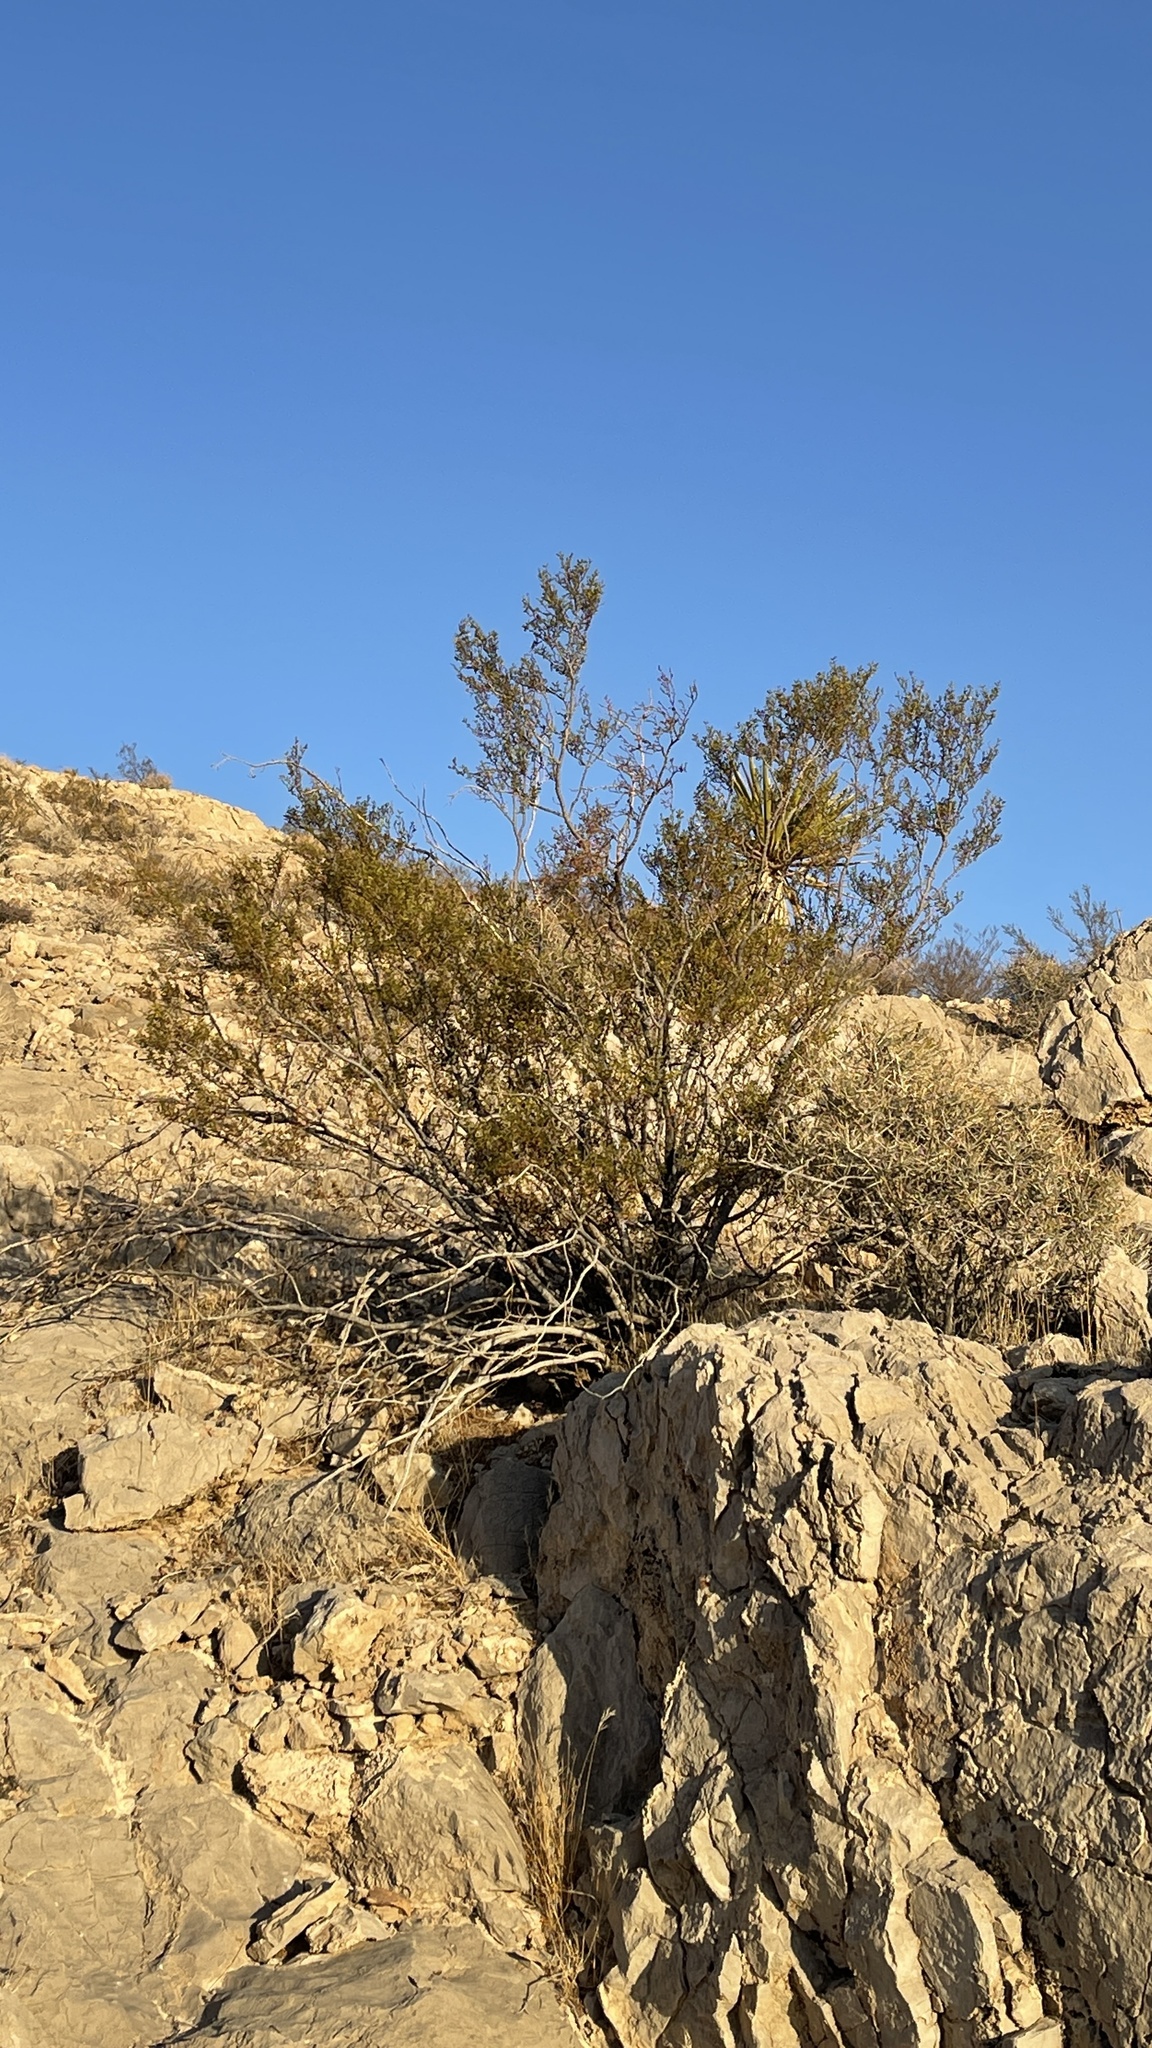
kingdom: Plantae
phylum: Tracheophyta
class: Magnoliopsida
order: Zygophyllales
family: Zygophyllaceae
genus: Larrea
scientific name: Larrea tridentata
